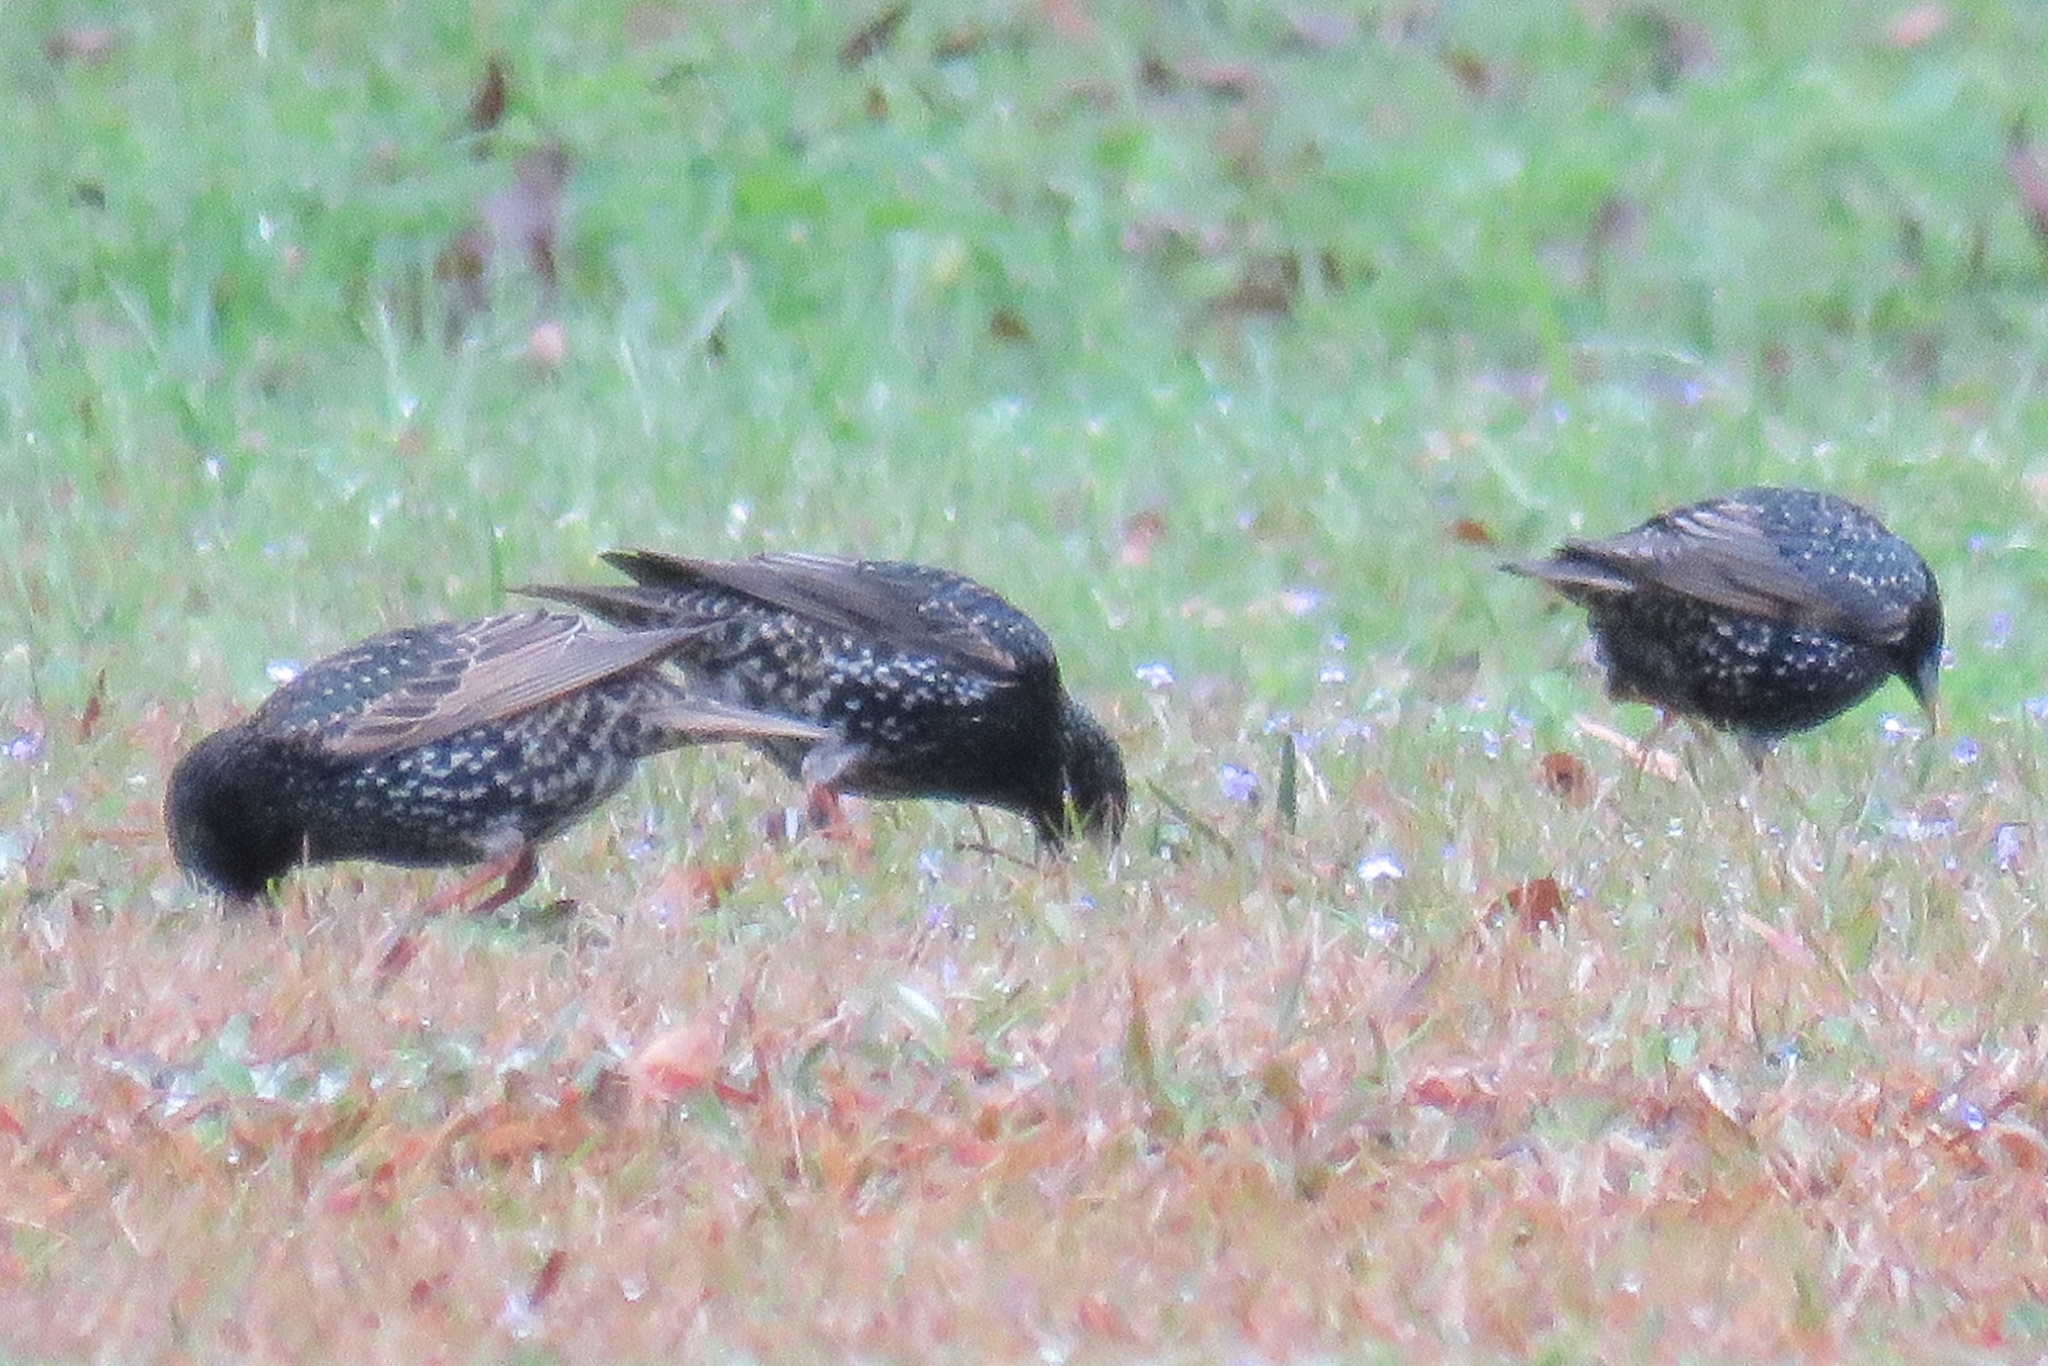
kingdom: Animalia
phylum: Chordata
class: Aves
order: Passeriformes
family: Sturnidae
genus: Sturnus
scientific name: Sturnus vulgaris
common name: Common starling
